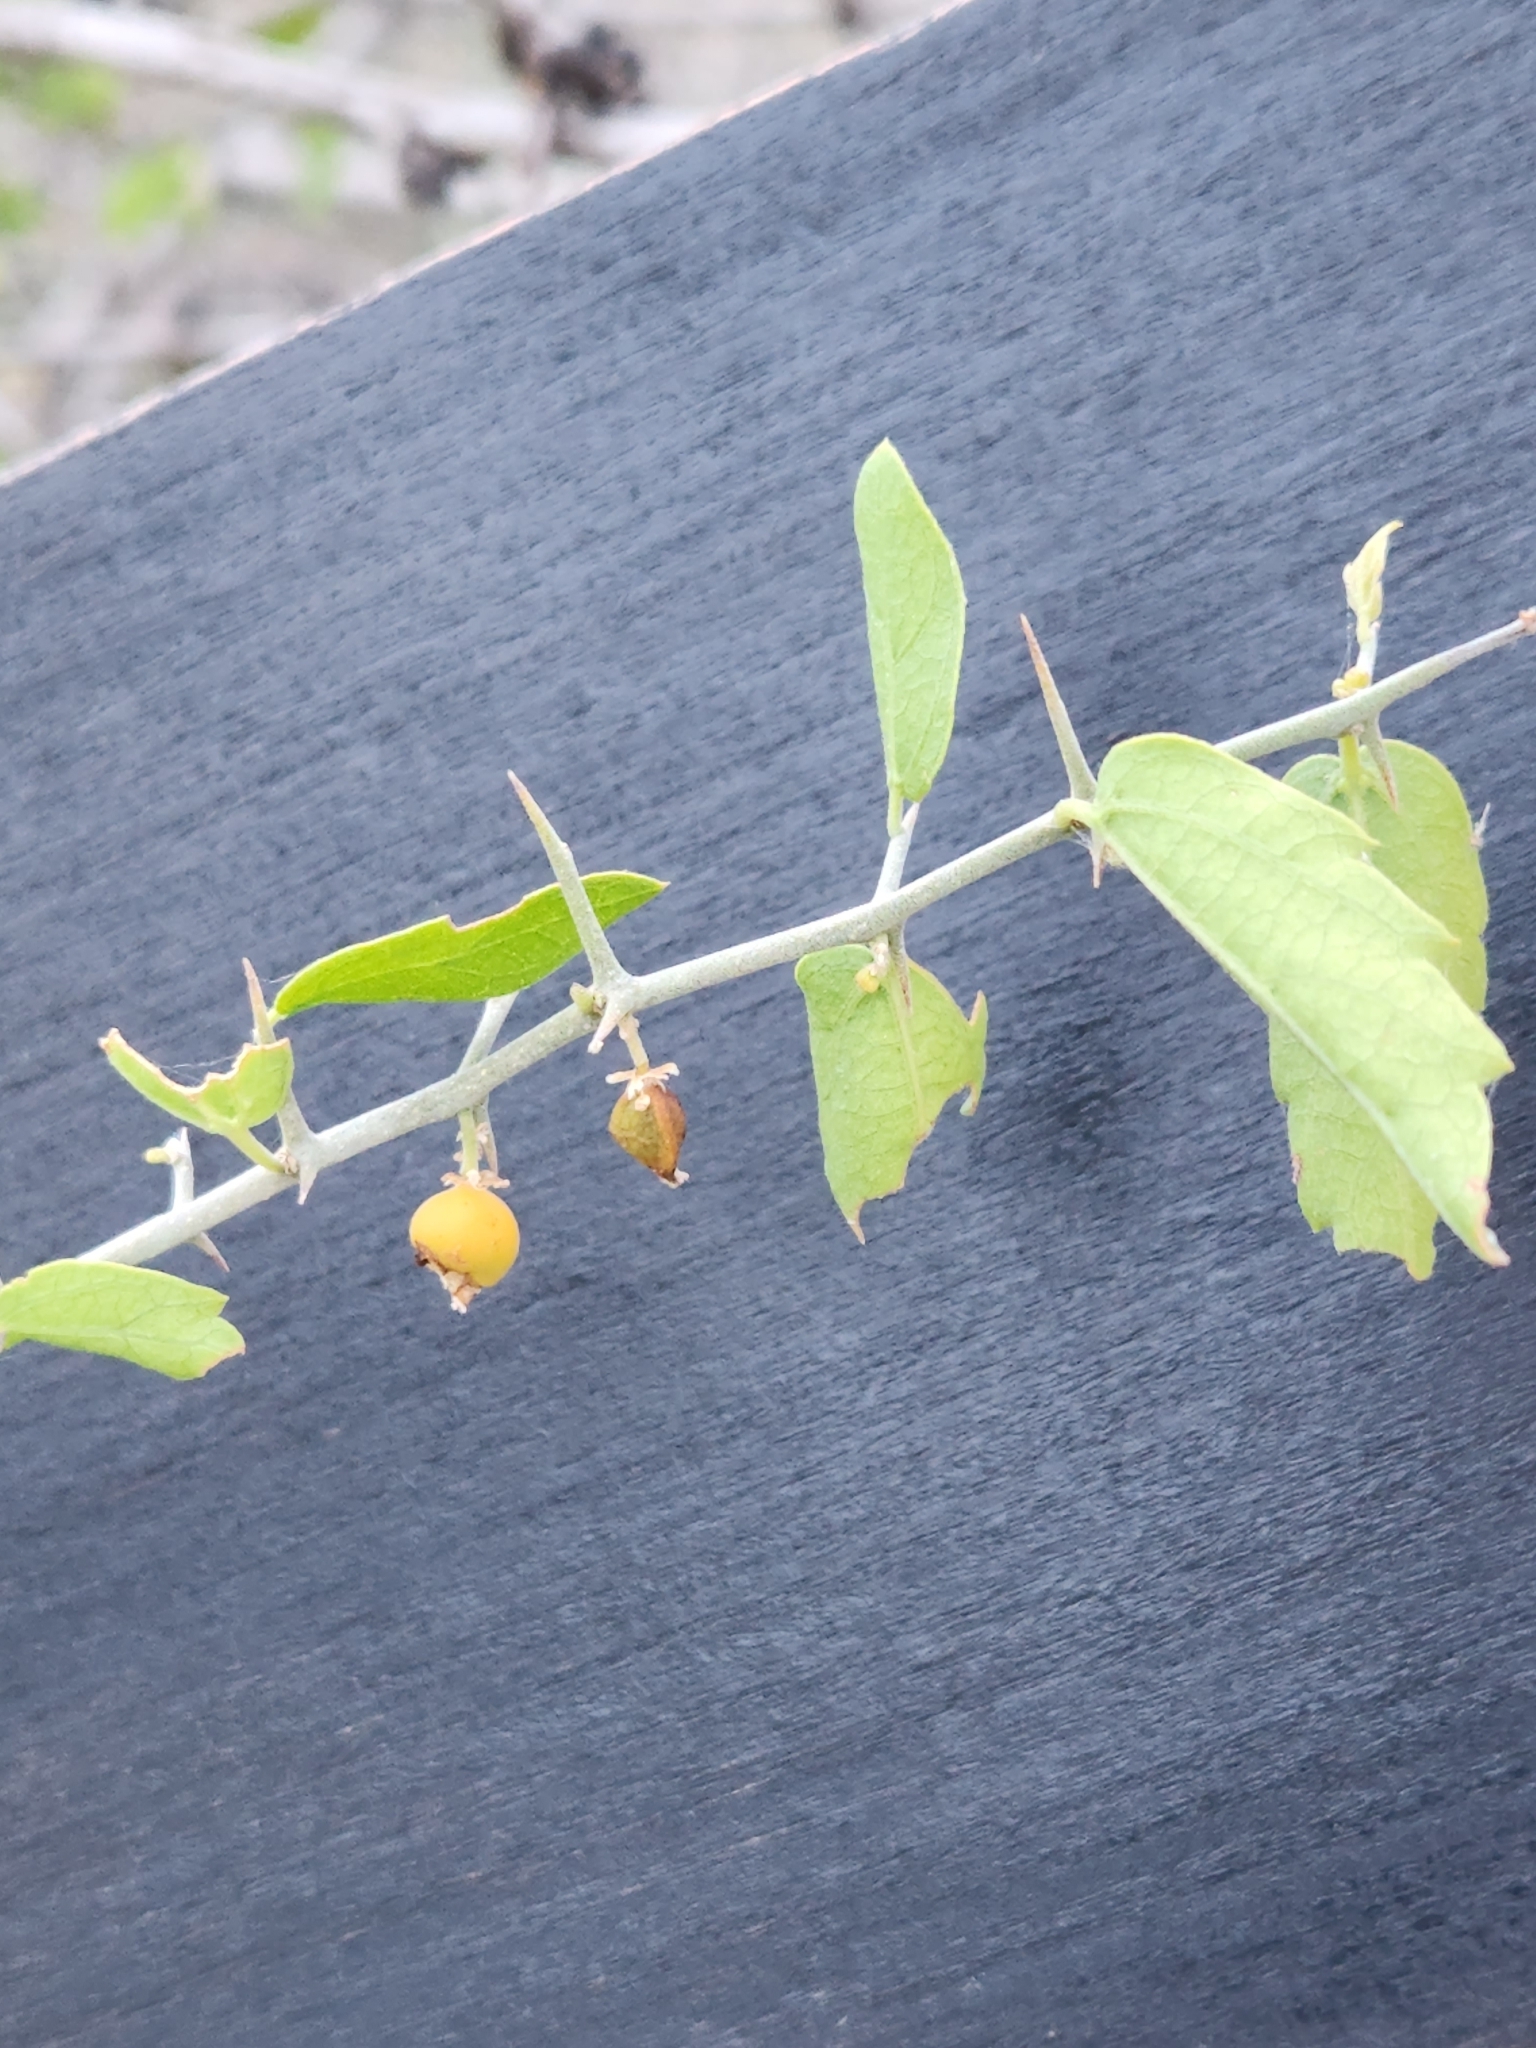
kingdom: Plantae
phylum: Tracheophyta
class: Magnoliopsida
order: Rosales
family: Cannabaceae
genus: Celtis
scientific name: Celtis pallida
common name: Desert hackberry
